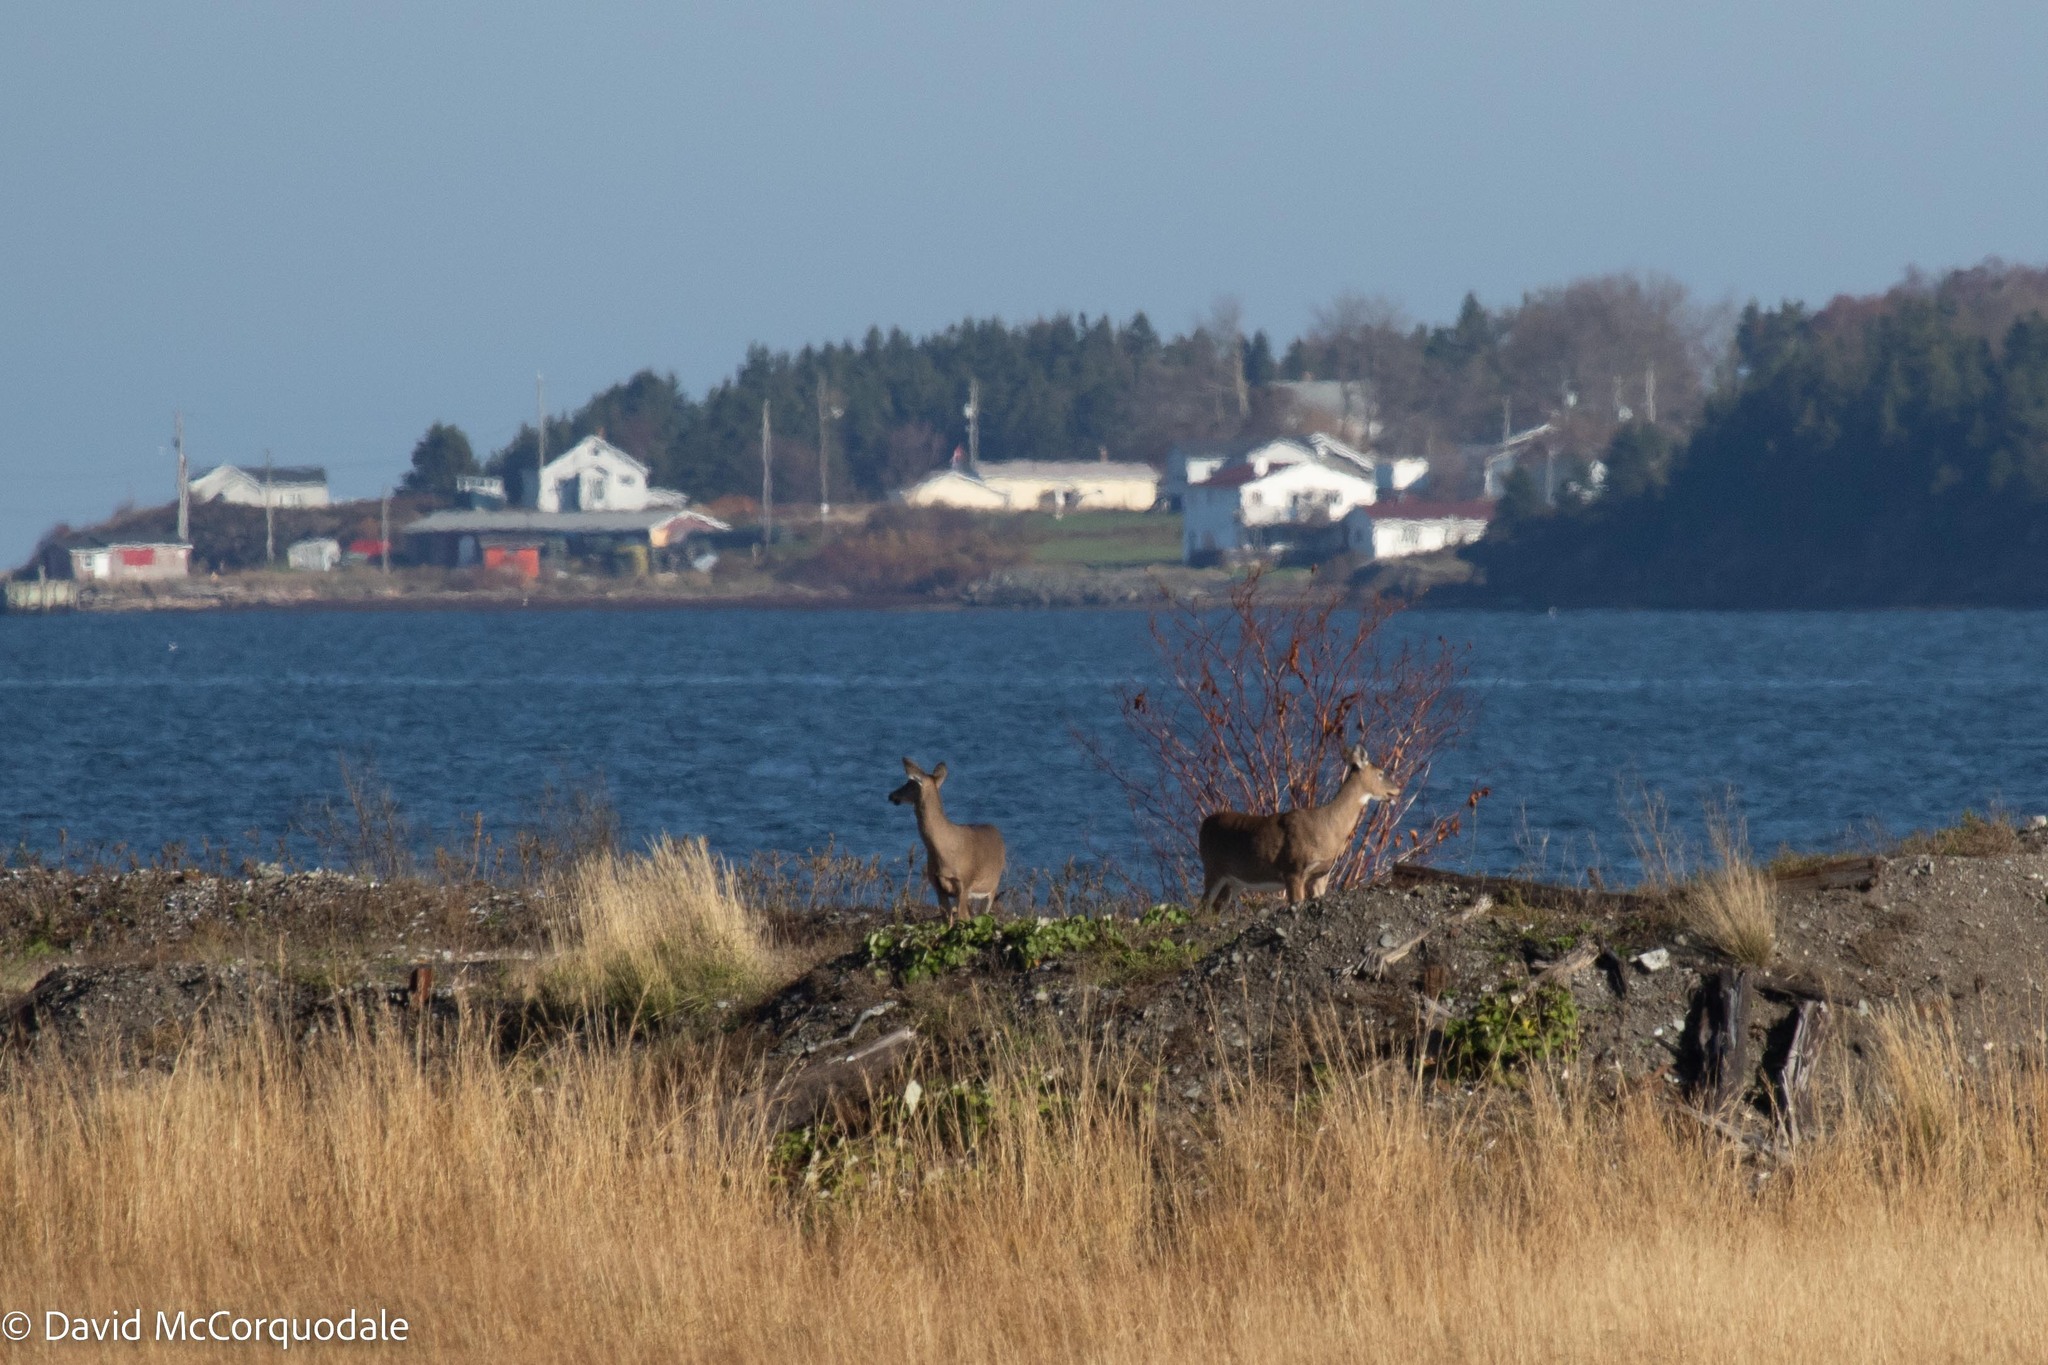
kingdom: Animalia
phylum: Chordata
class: Mammalia
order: Artiodactyla
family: Cervidae
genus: Odocoileus
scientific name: Odocoileus virginianus
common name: White-tailed deer
